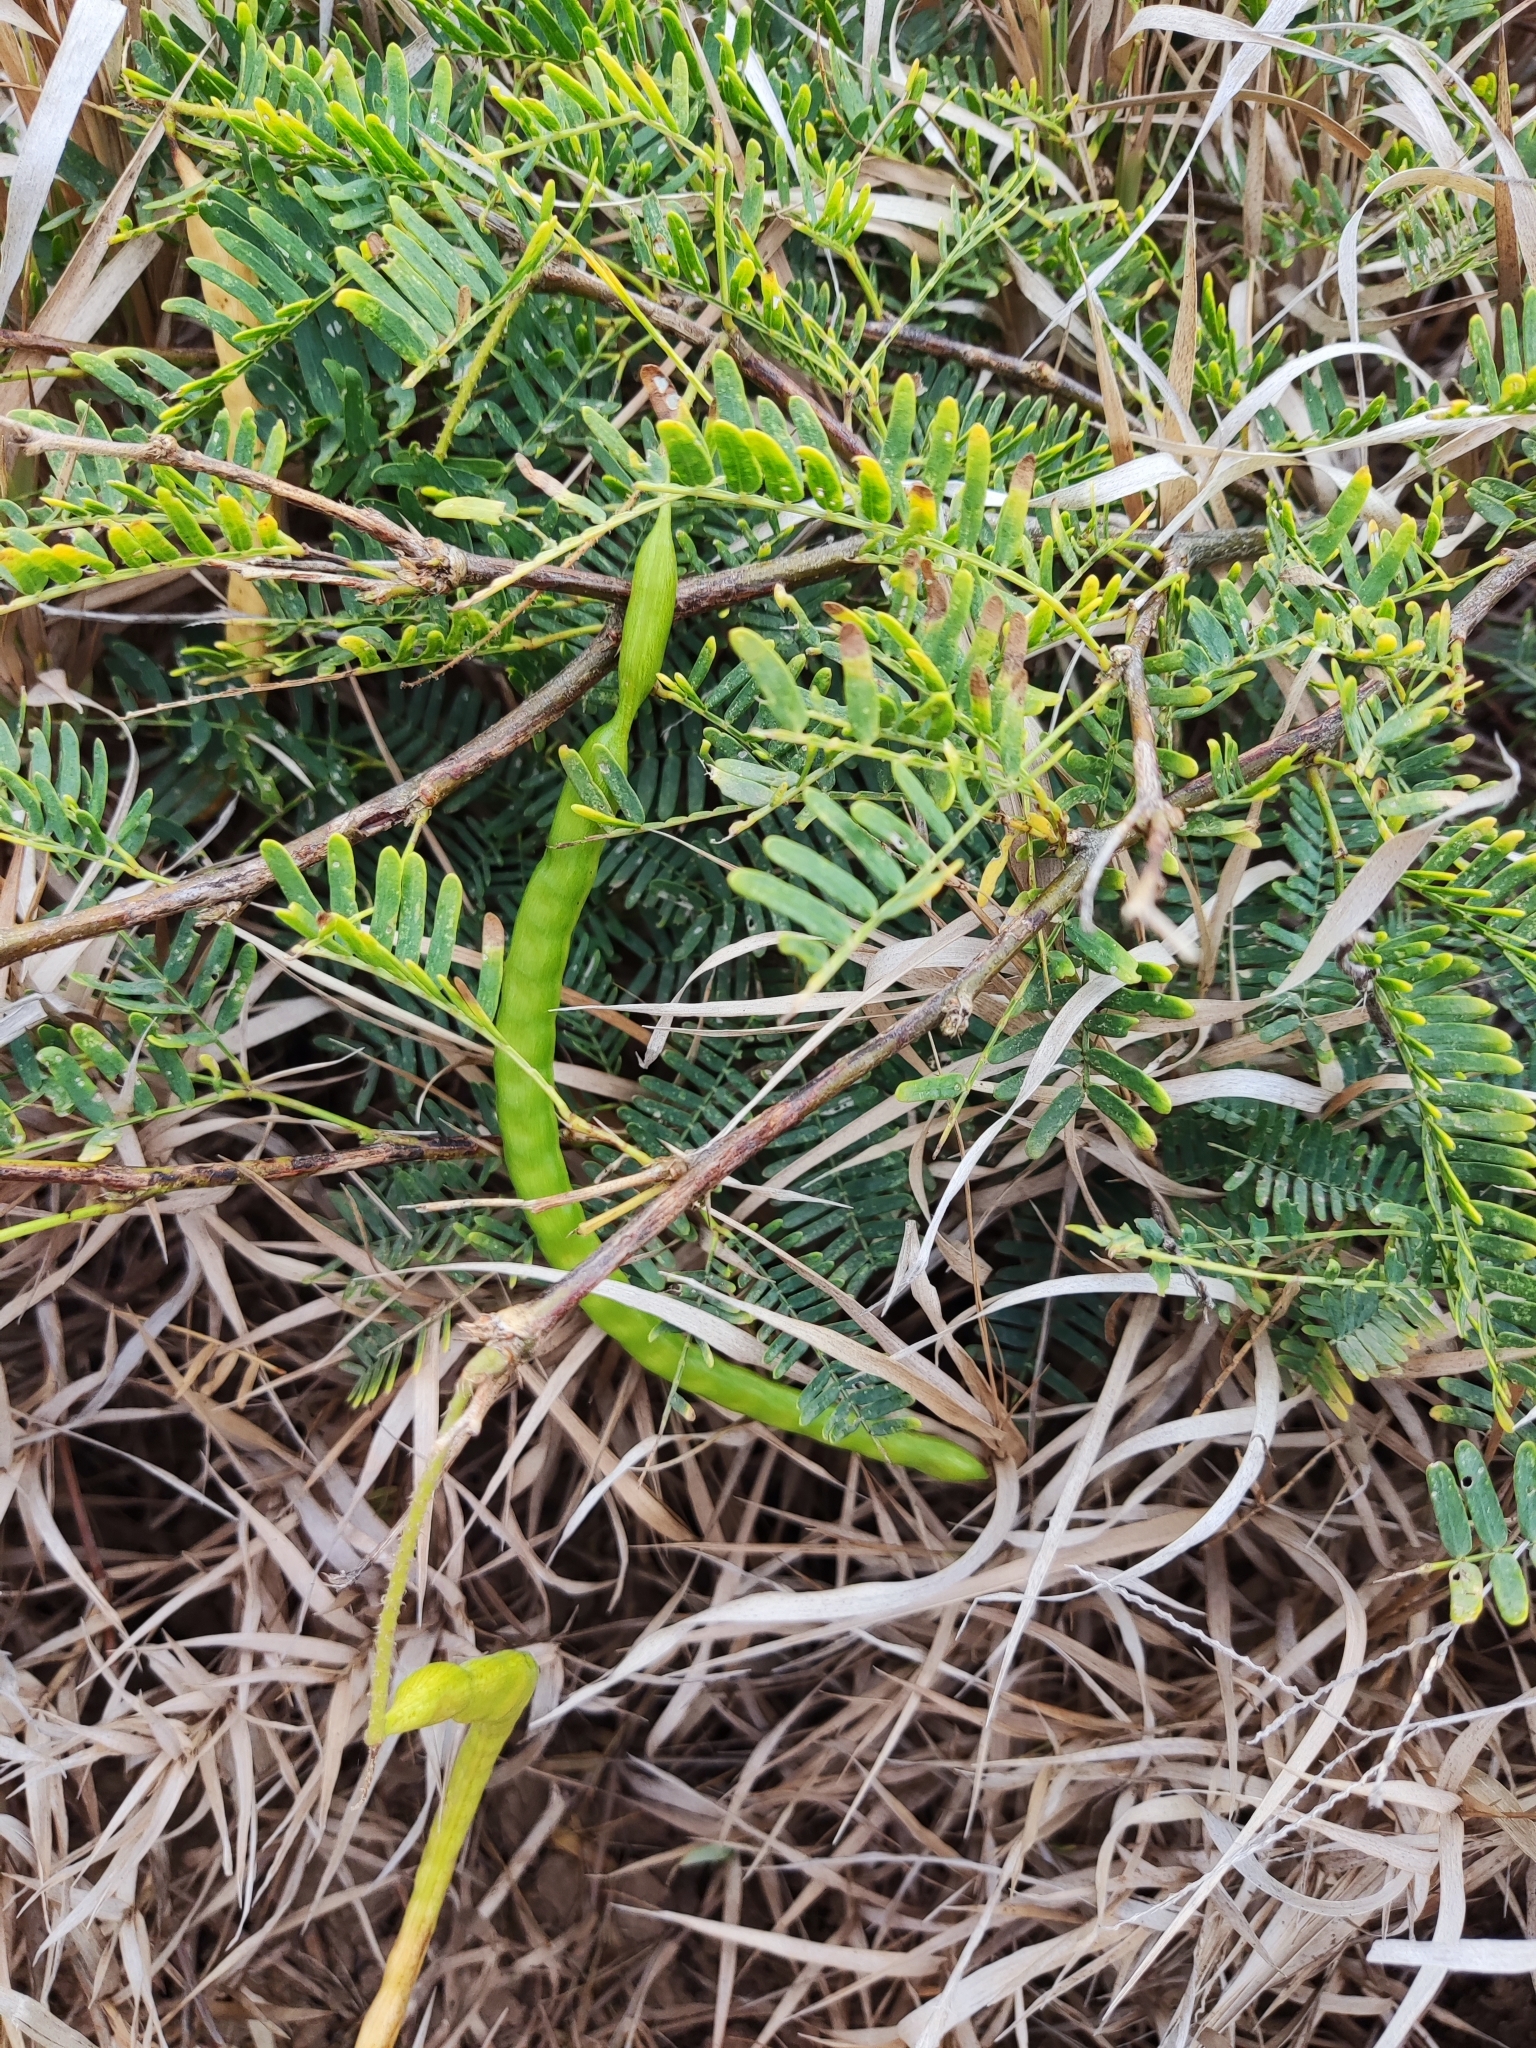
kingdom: Plantae
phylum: Tracheophyta
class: Magnoliopsida
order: Fabales
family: Fabaceae
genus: Prosopis
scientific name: Prosopis juliflora
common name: Mesquite
